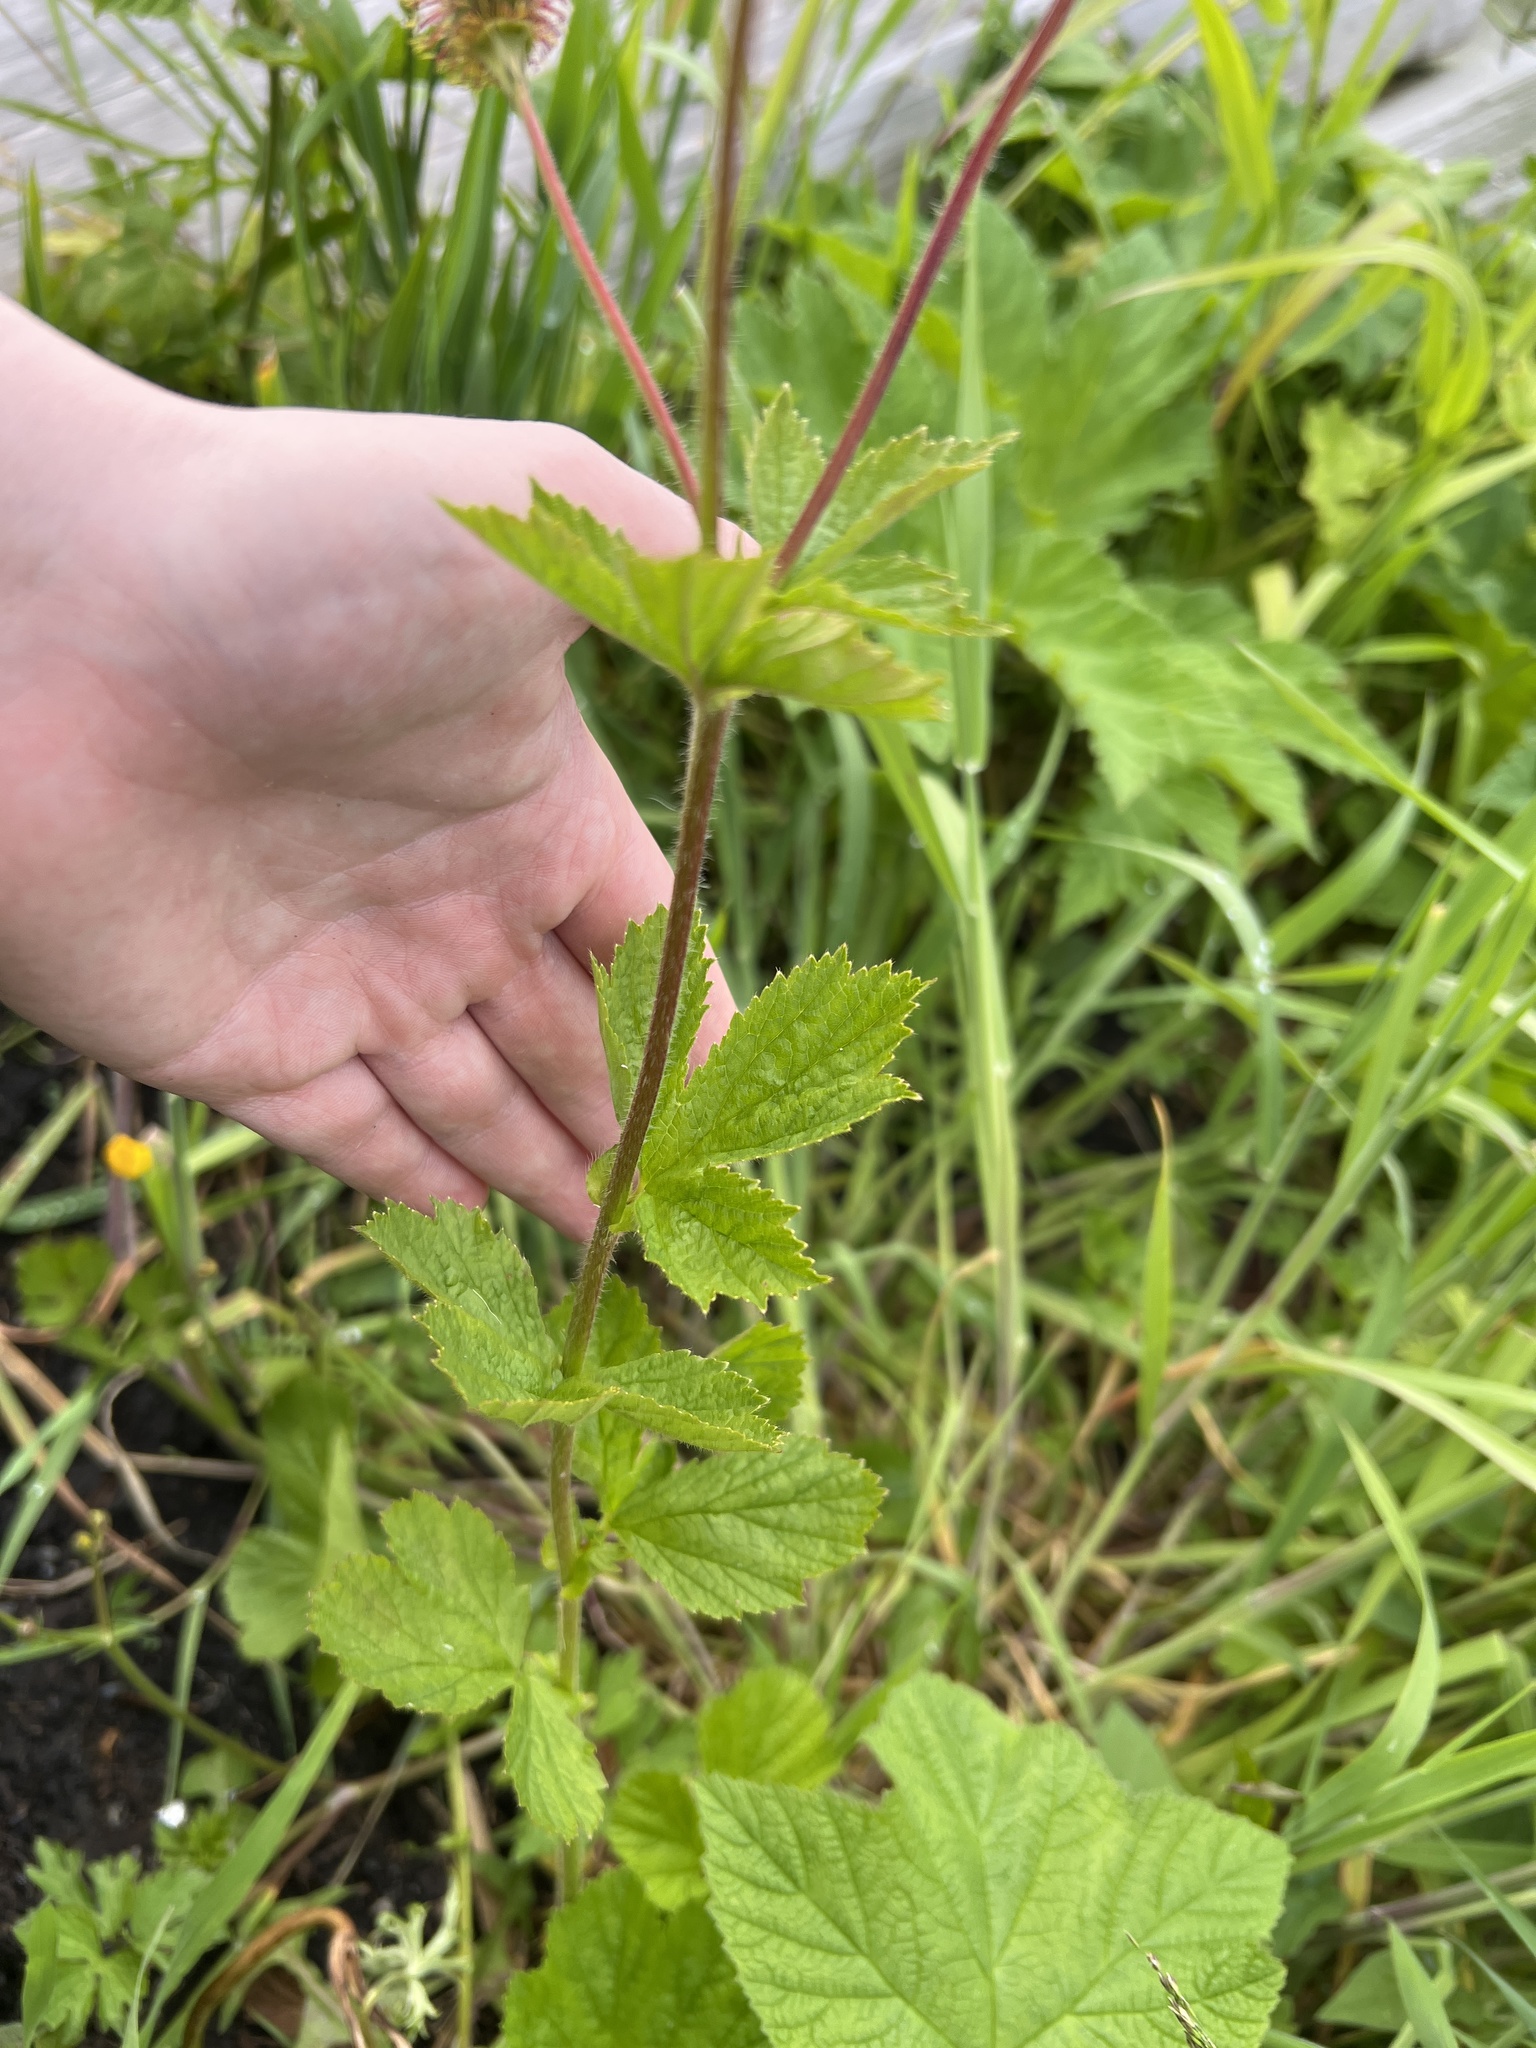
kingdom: Plantae
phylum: Tracheophyta
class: Magnoliopsida
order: Rosales
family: Rosaceae
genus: Geum
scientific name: Geum macrophyllum
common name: Large-leaved avens
